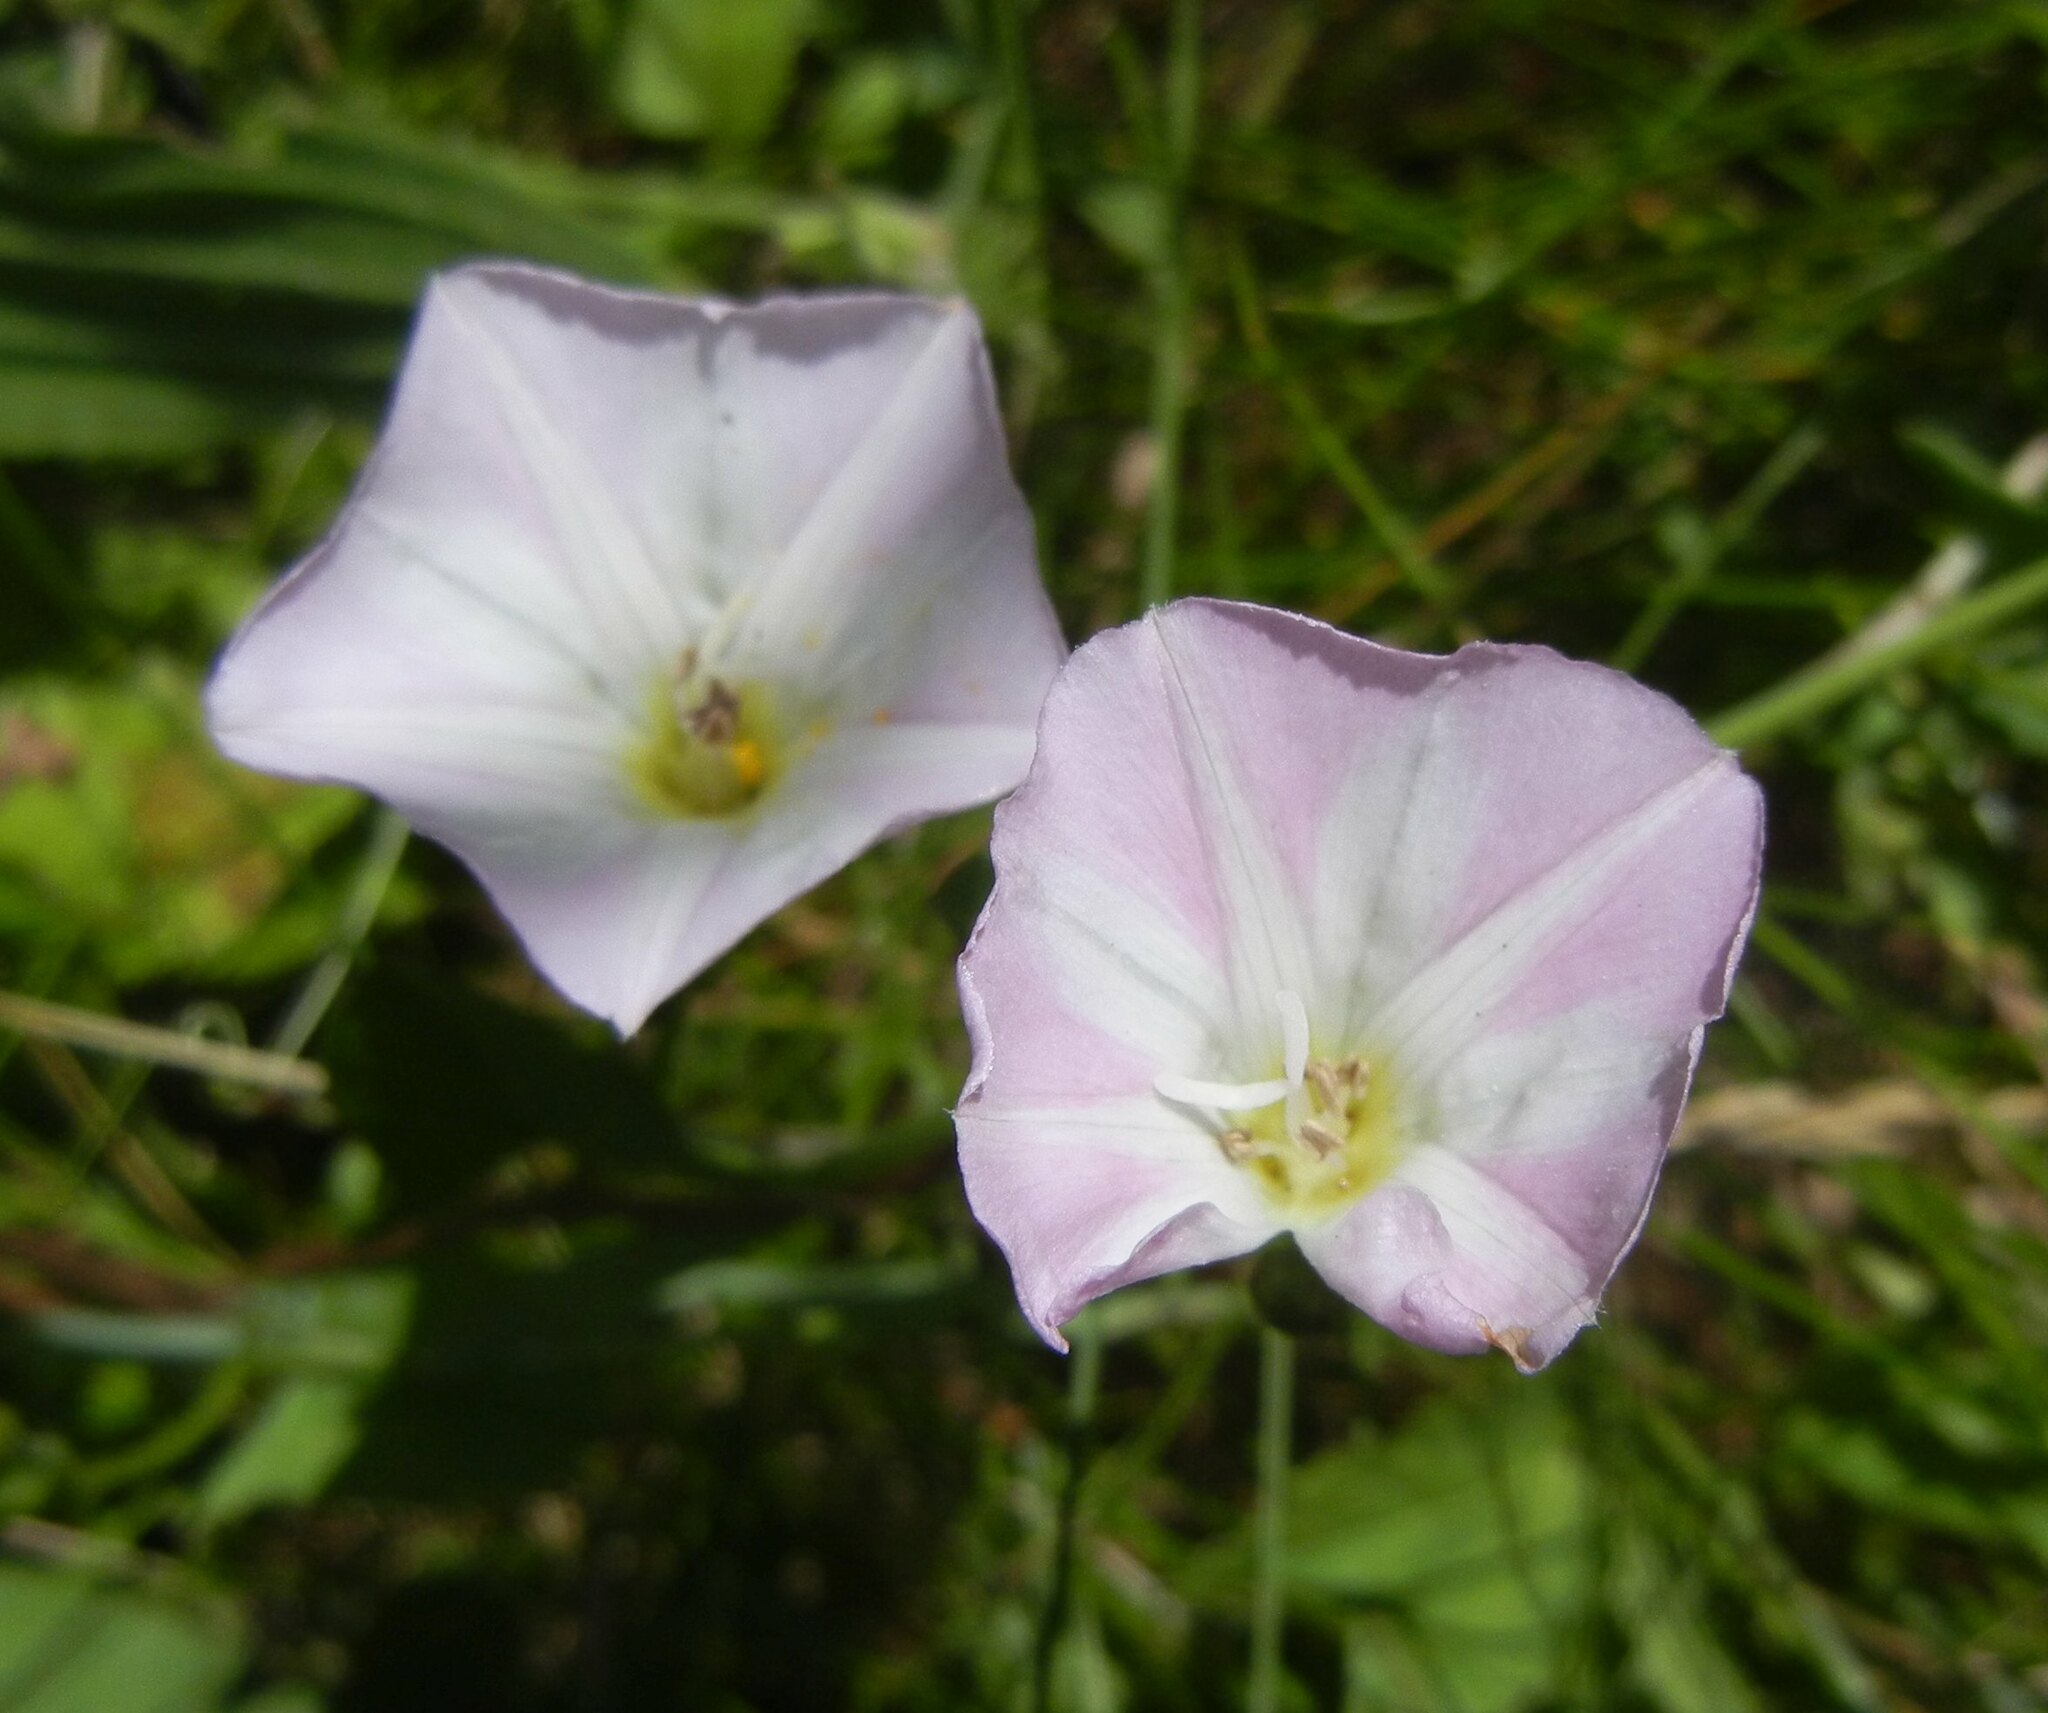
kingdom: Plantae
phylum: Tracheophyta
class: Magnoliopsida
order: Solanales
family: Convolvulaceae
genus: Convolvulus
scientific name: Convolvulus arvensis
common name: Field bindweed
